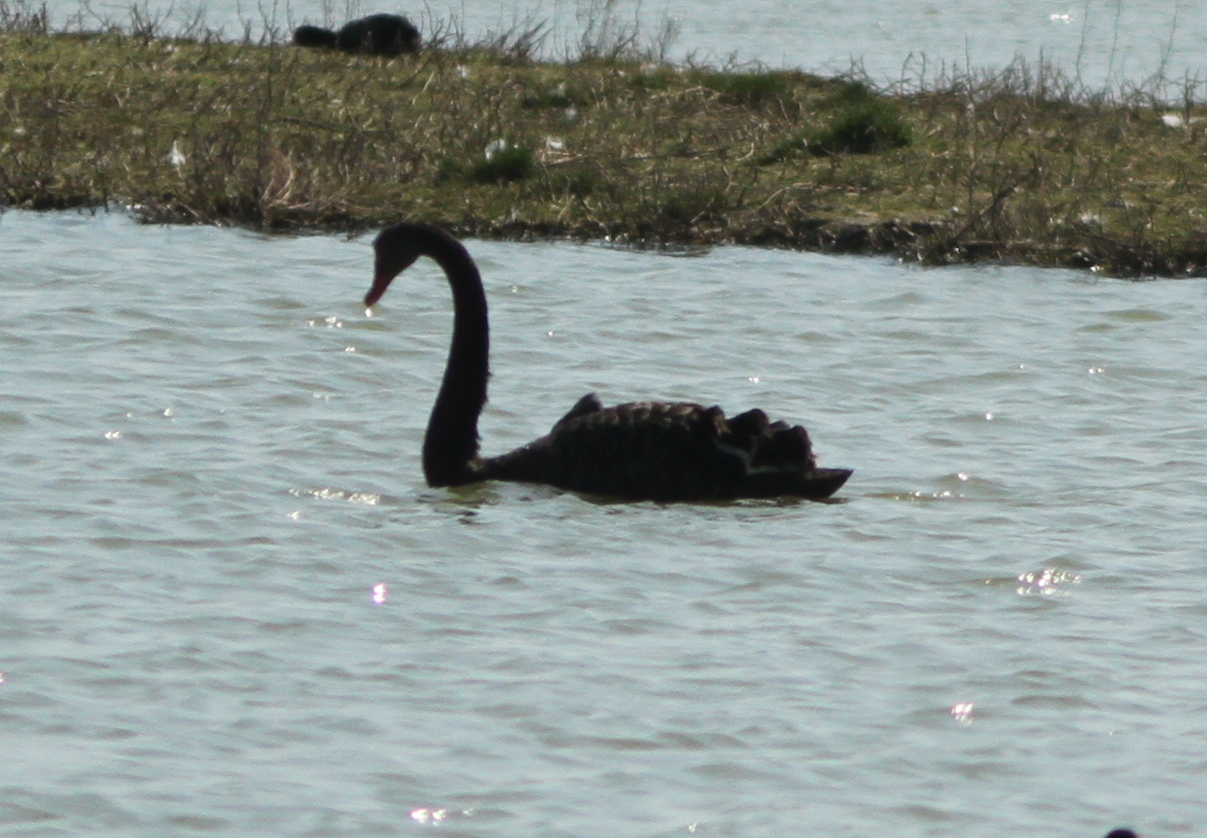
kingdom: Animalia
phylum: Chordata
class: Aves
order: Anseriformes
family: Anatidae
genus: Cygnus
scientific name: Cygnus atratus
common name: Black swan
